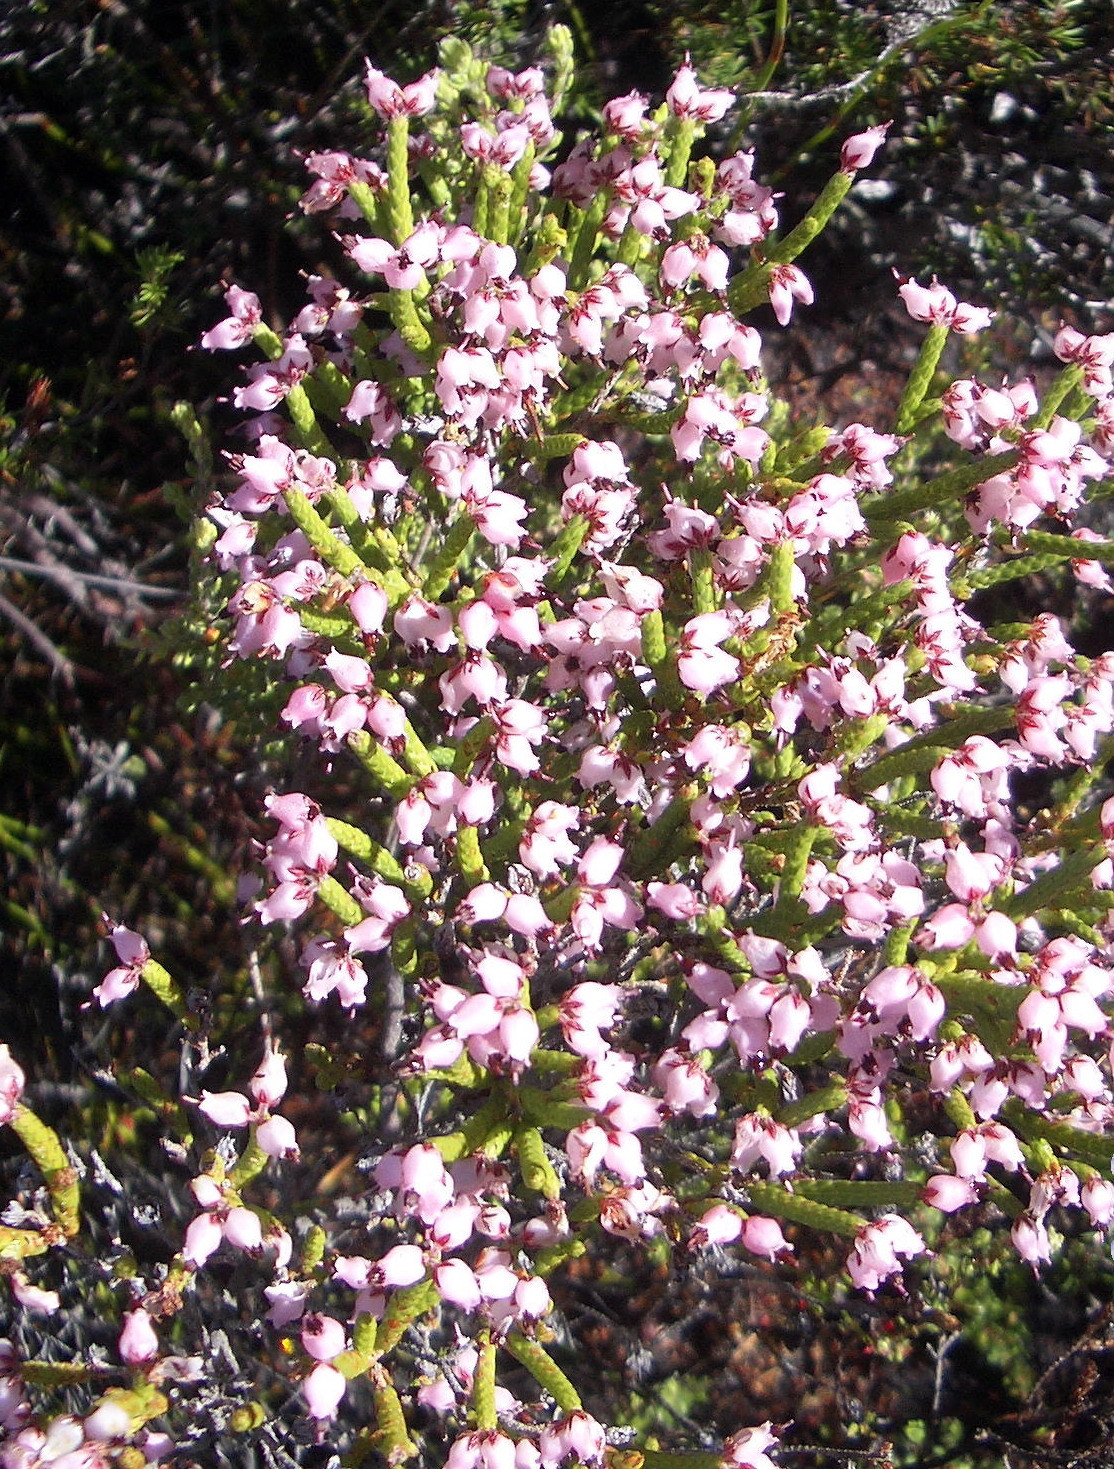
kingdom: Plantae
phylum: Tracheophyta
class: Magnoliopsida
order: Ericales
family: Ericaceae
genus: Erica
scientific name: Erica juniperina
